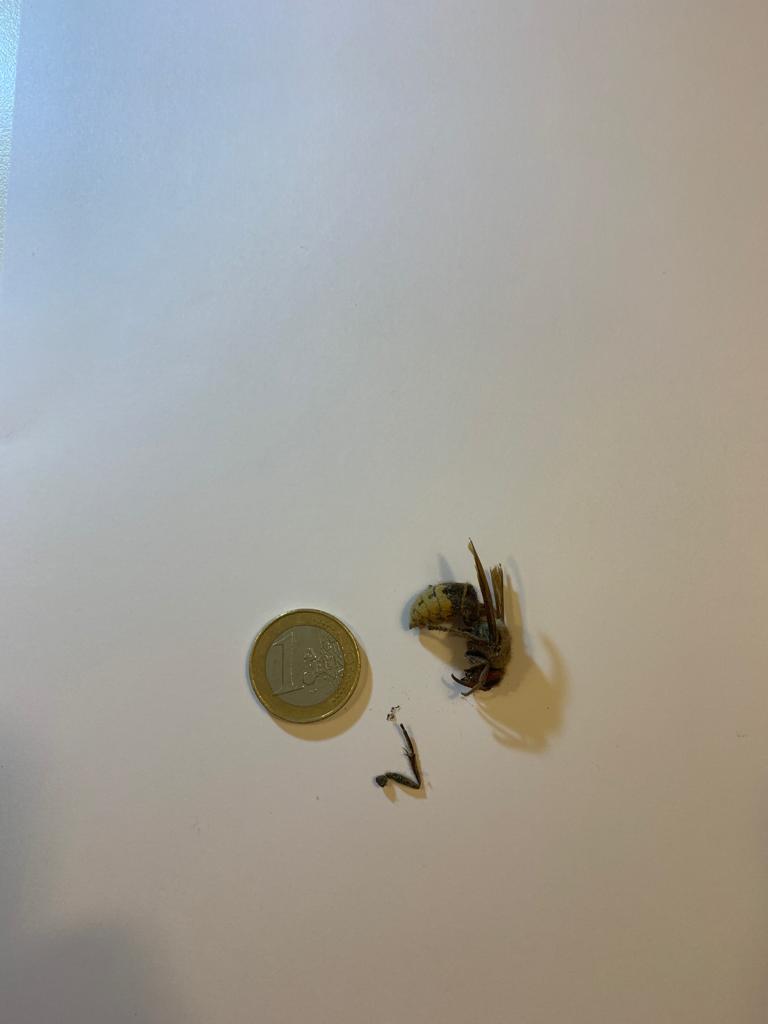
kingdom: Animalia
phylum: Arthropoda
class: Insecta
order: Hymenoptera
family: Vespidae
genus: Vespa
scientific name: Vespa crabro
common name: Hornet
